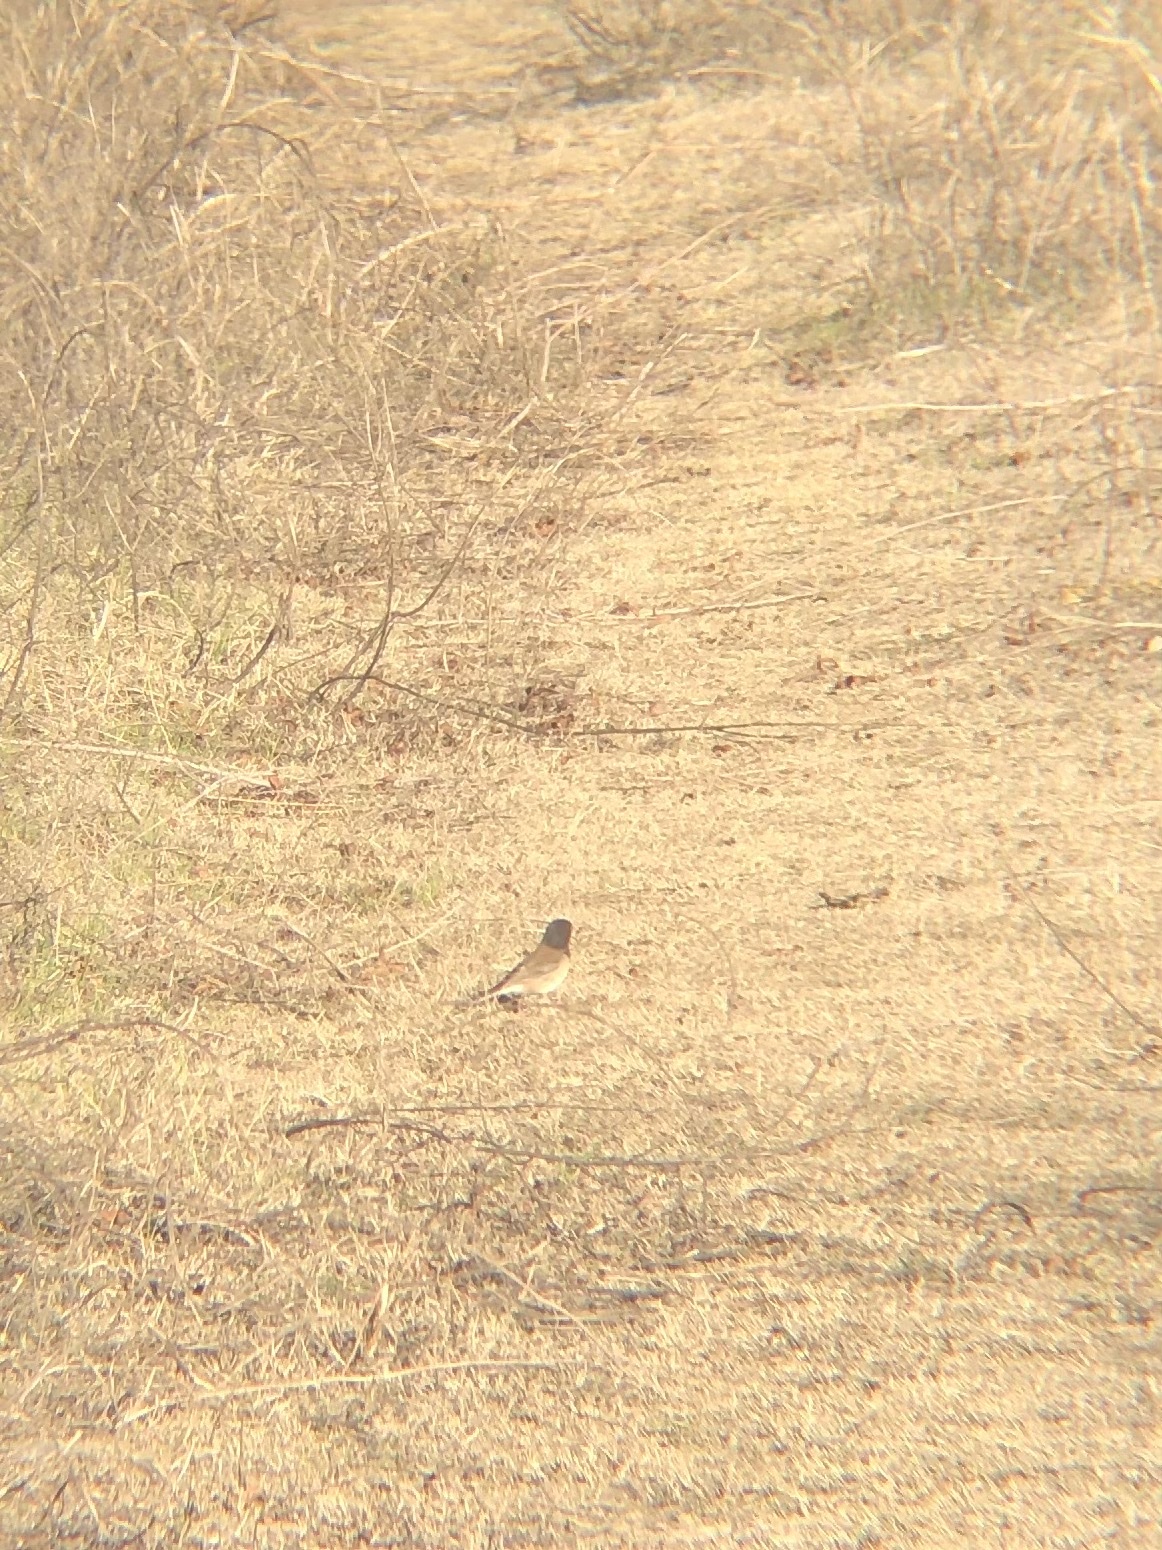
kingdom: Animalia
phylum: Chordata
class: Aves
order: Passeriformes
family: Passerellidae
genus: Junco
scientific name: Junco hyemalis
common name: Dark-eyed junco
